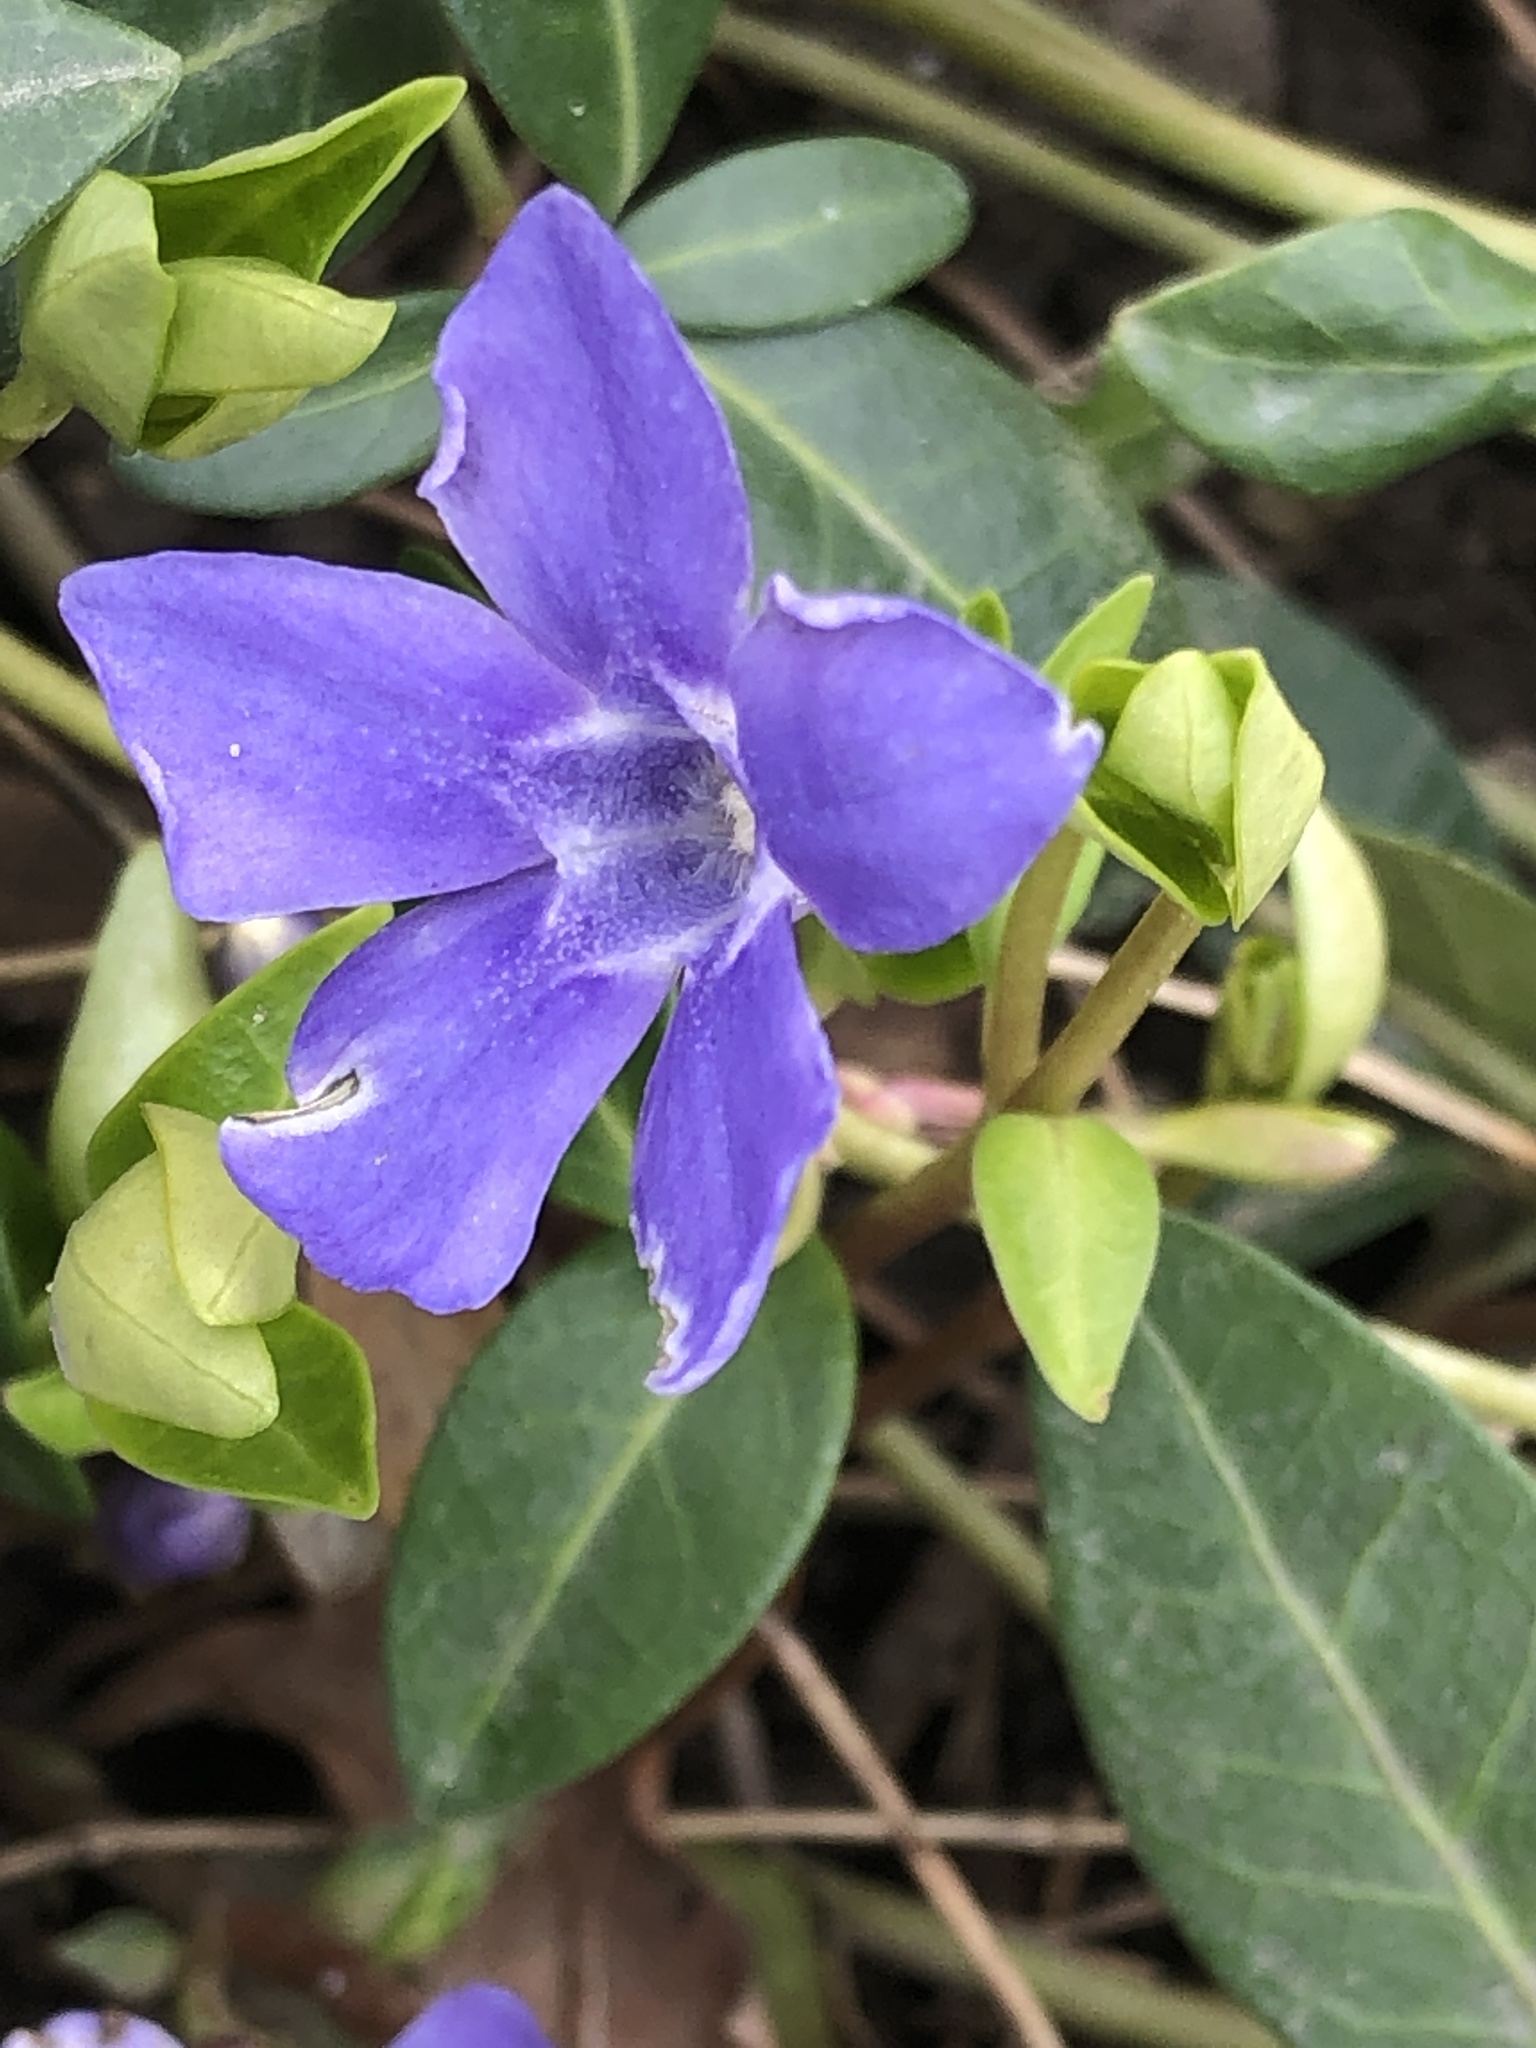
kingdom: Plantae
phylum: Tracheophyta
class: Magnoliopsida
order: Gentianales
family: Apocynaceae
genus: Vinca
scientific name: Vinca minor
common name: Lesser periwinkle
